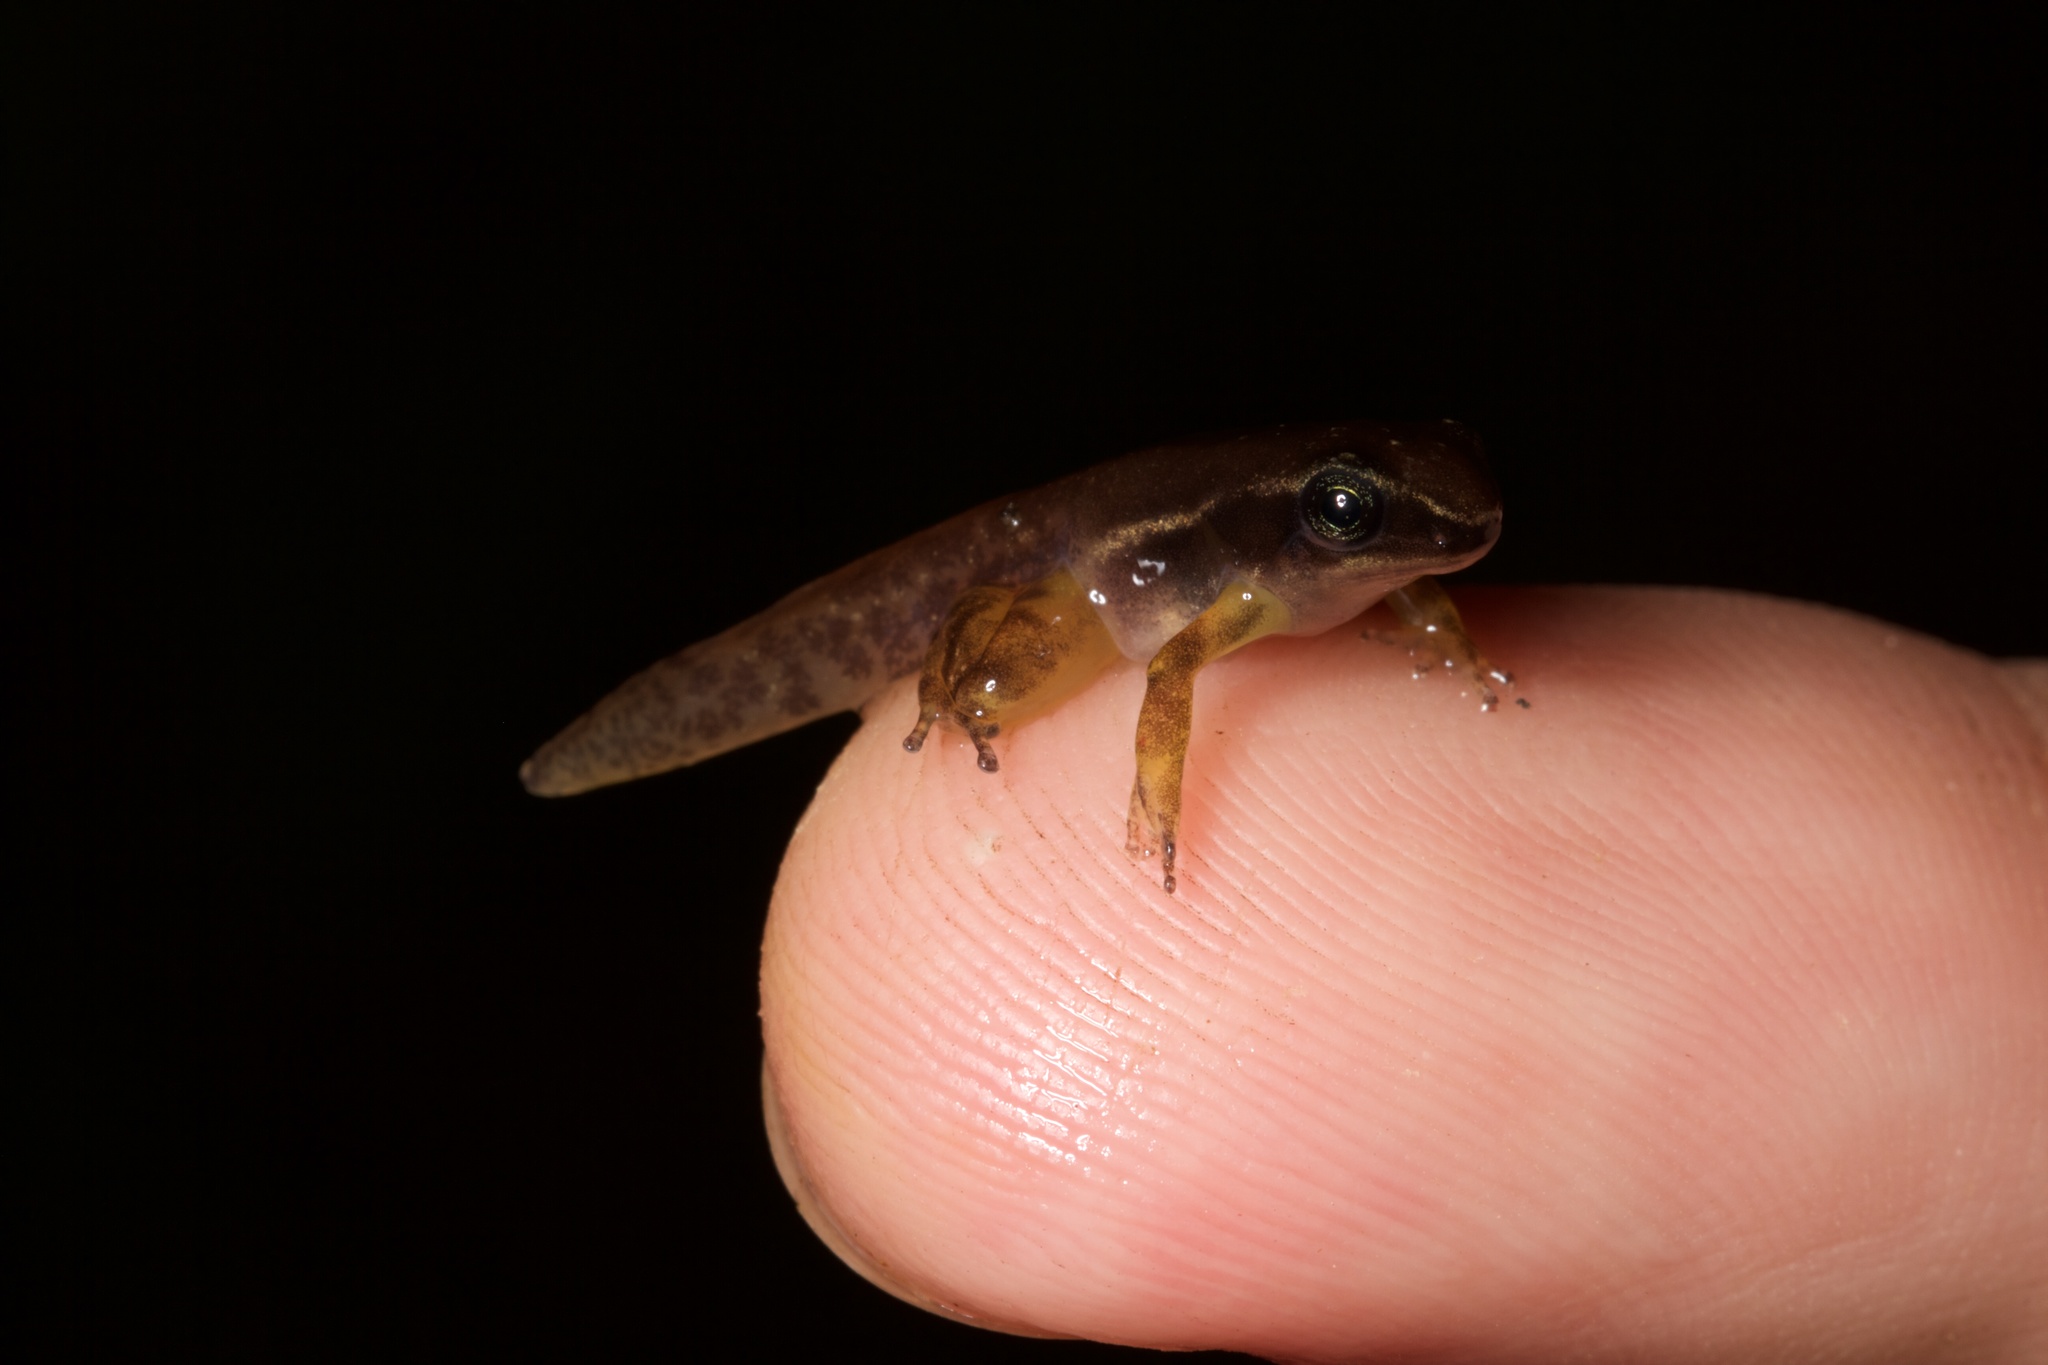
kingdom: Animalia
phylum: Chordata
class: Amphibia
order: Anura
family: Dendrobatidae
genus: Silverstoneia
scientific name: Silverstoneia flotator
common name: Rainforest rocket frog
